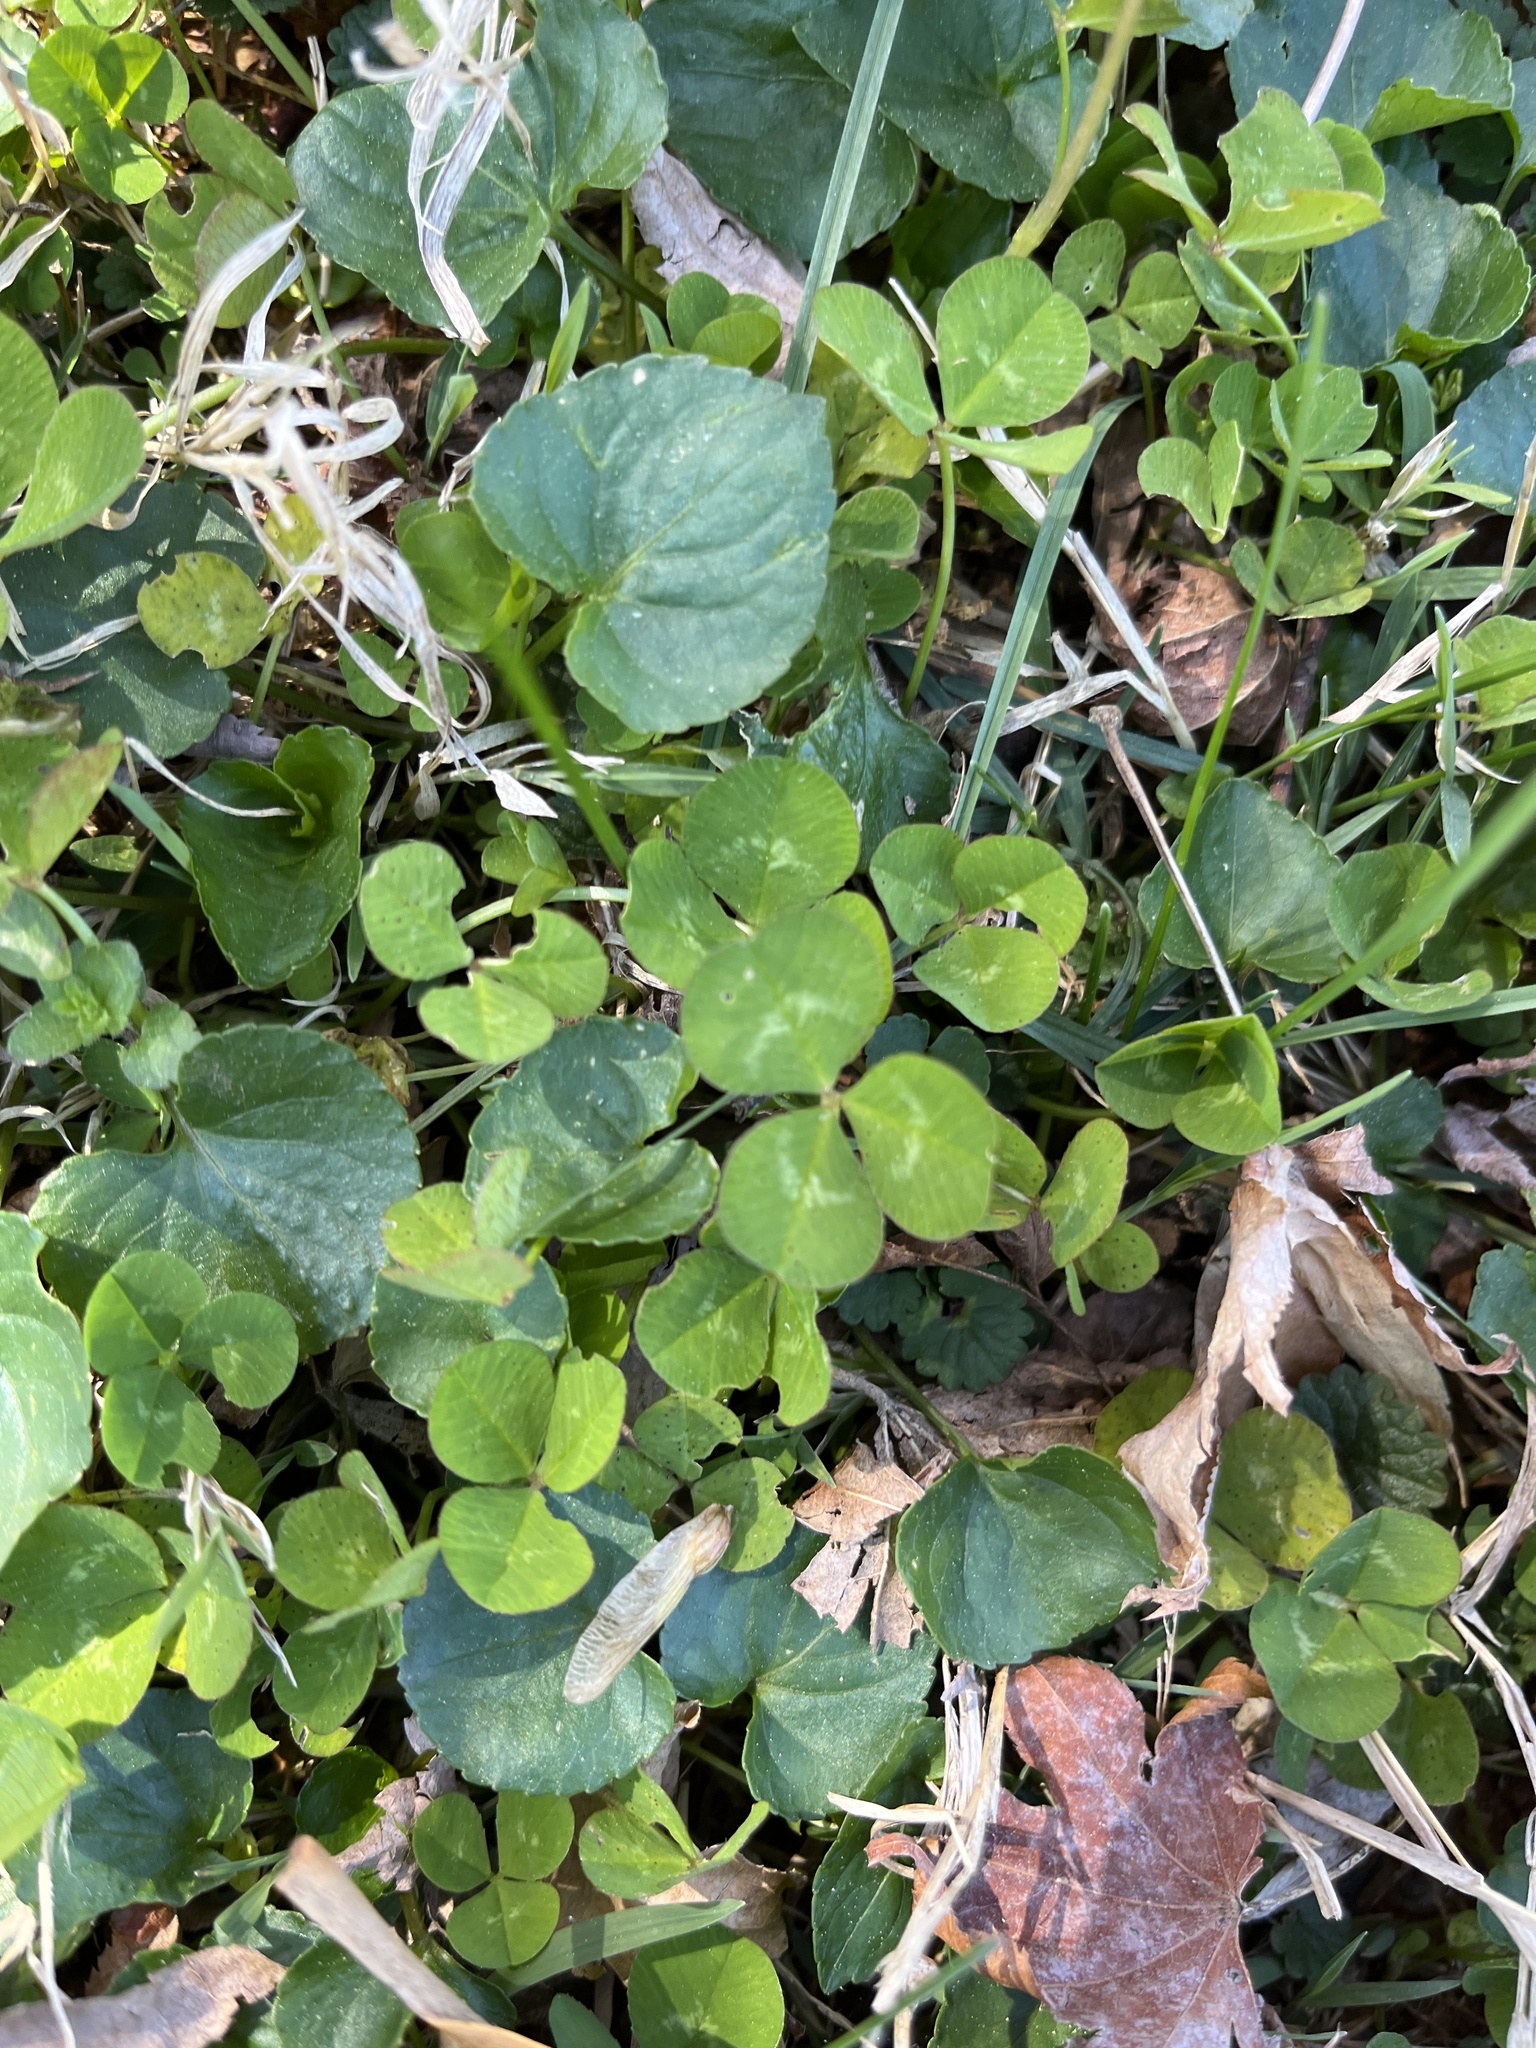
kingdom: Plantae
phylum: Tracheophyta
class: Magnoliopsida
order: Fabales
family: Fabaceae
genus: Trifolium
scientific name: Trifolium repens
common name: White clover
